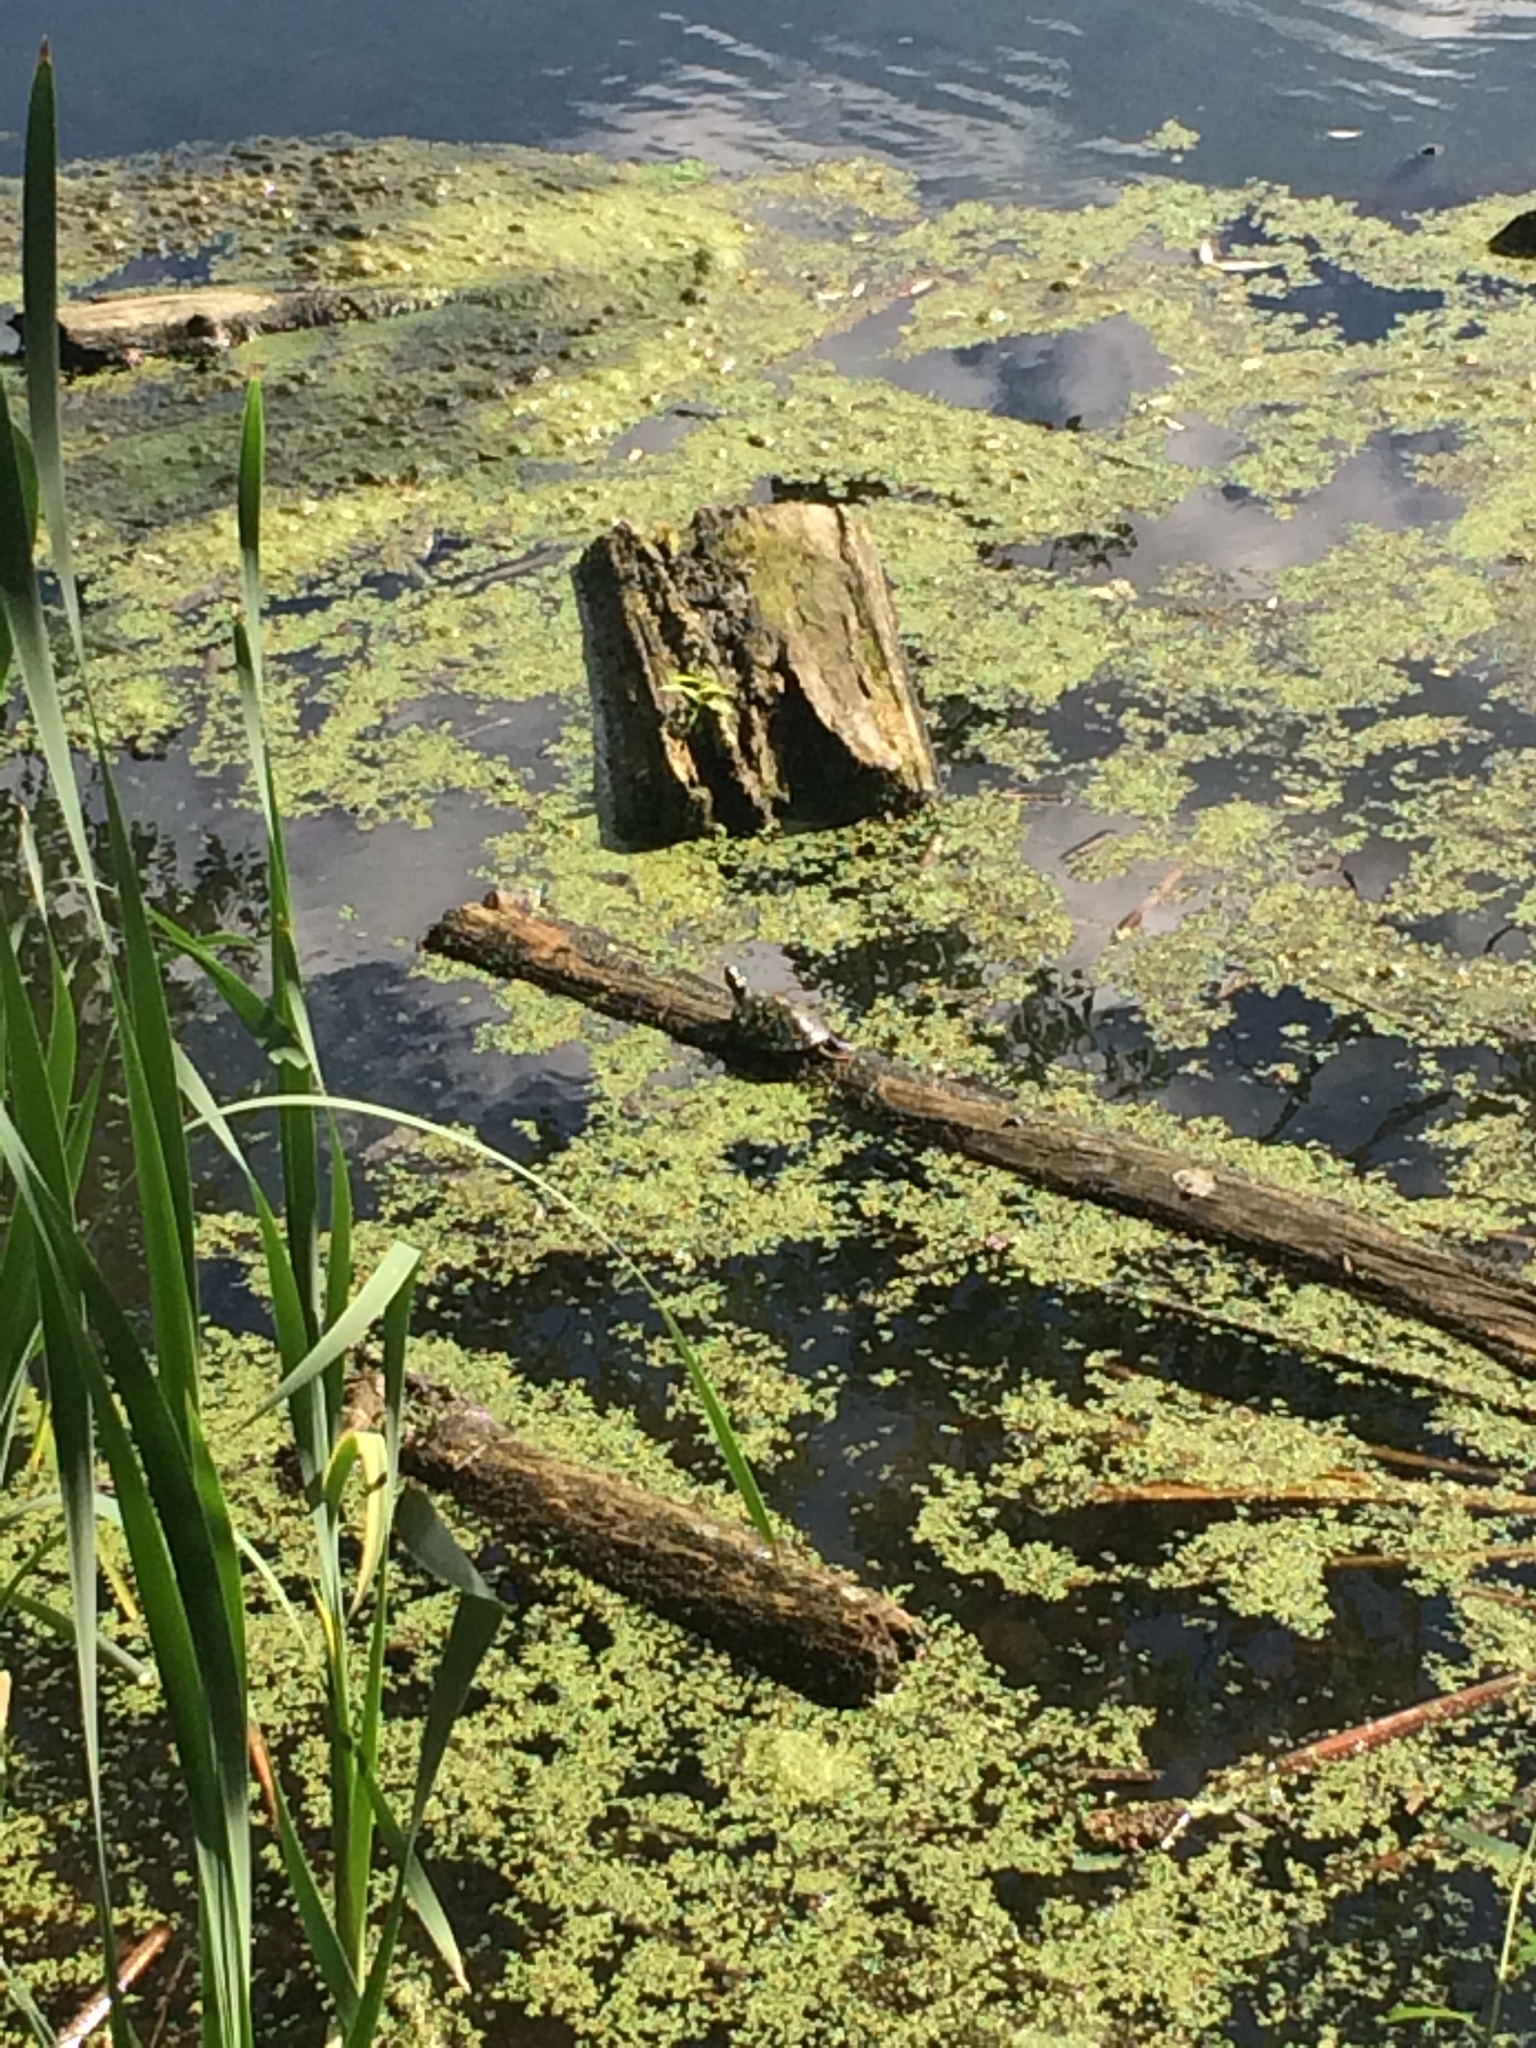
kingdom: Animalia
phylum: Chordata
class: Testudines
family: Emydidae
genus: Chrysemys
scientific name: Chrysemys picta
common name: Painted turtle
